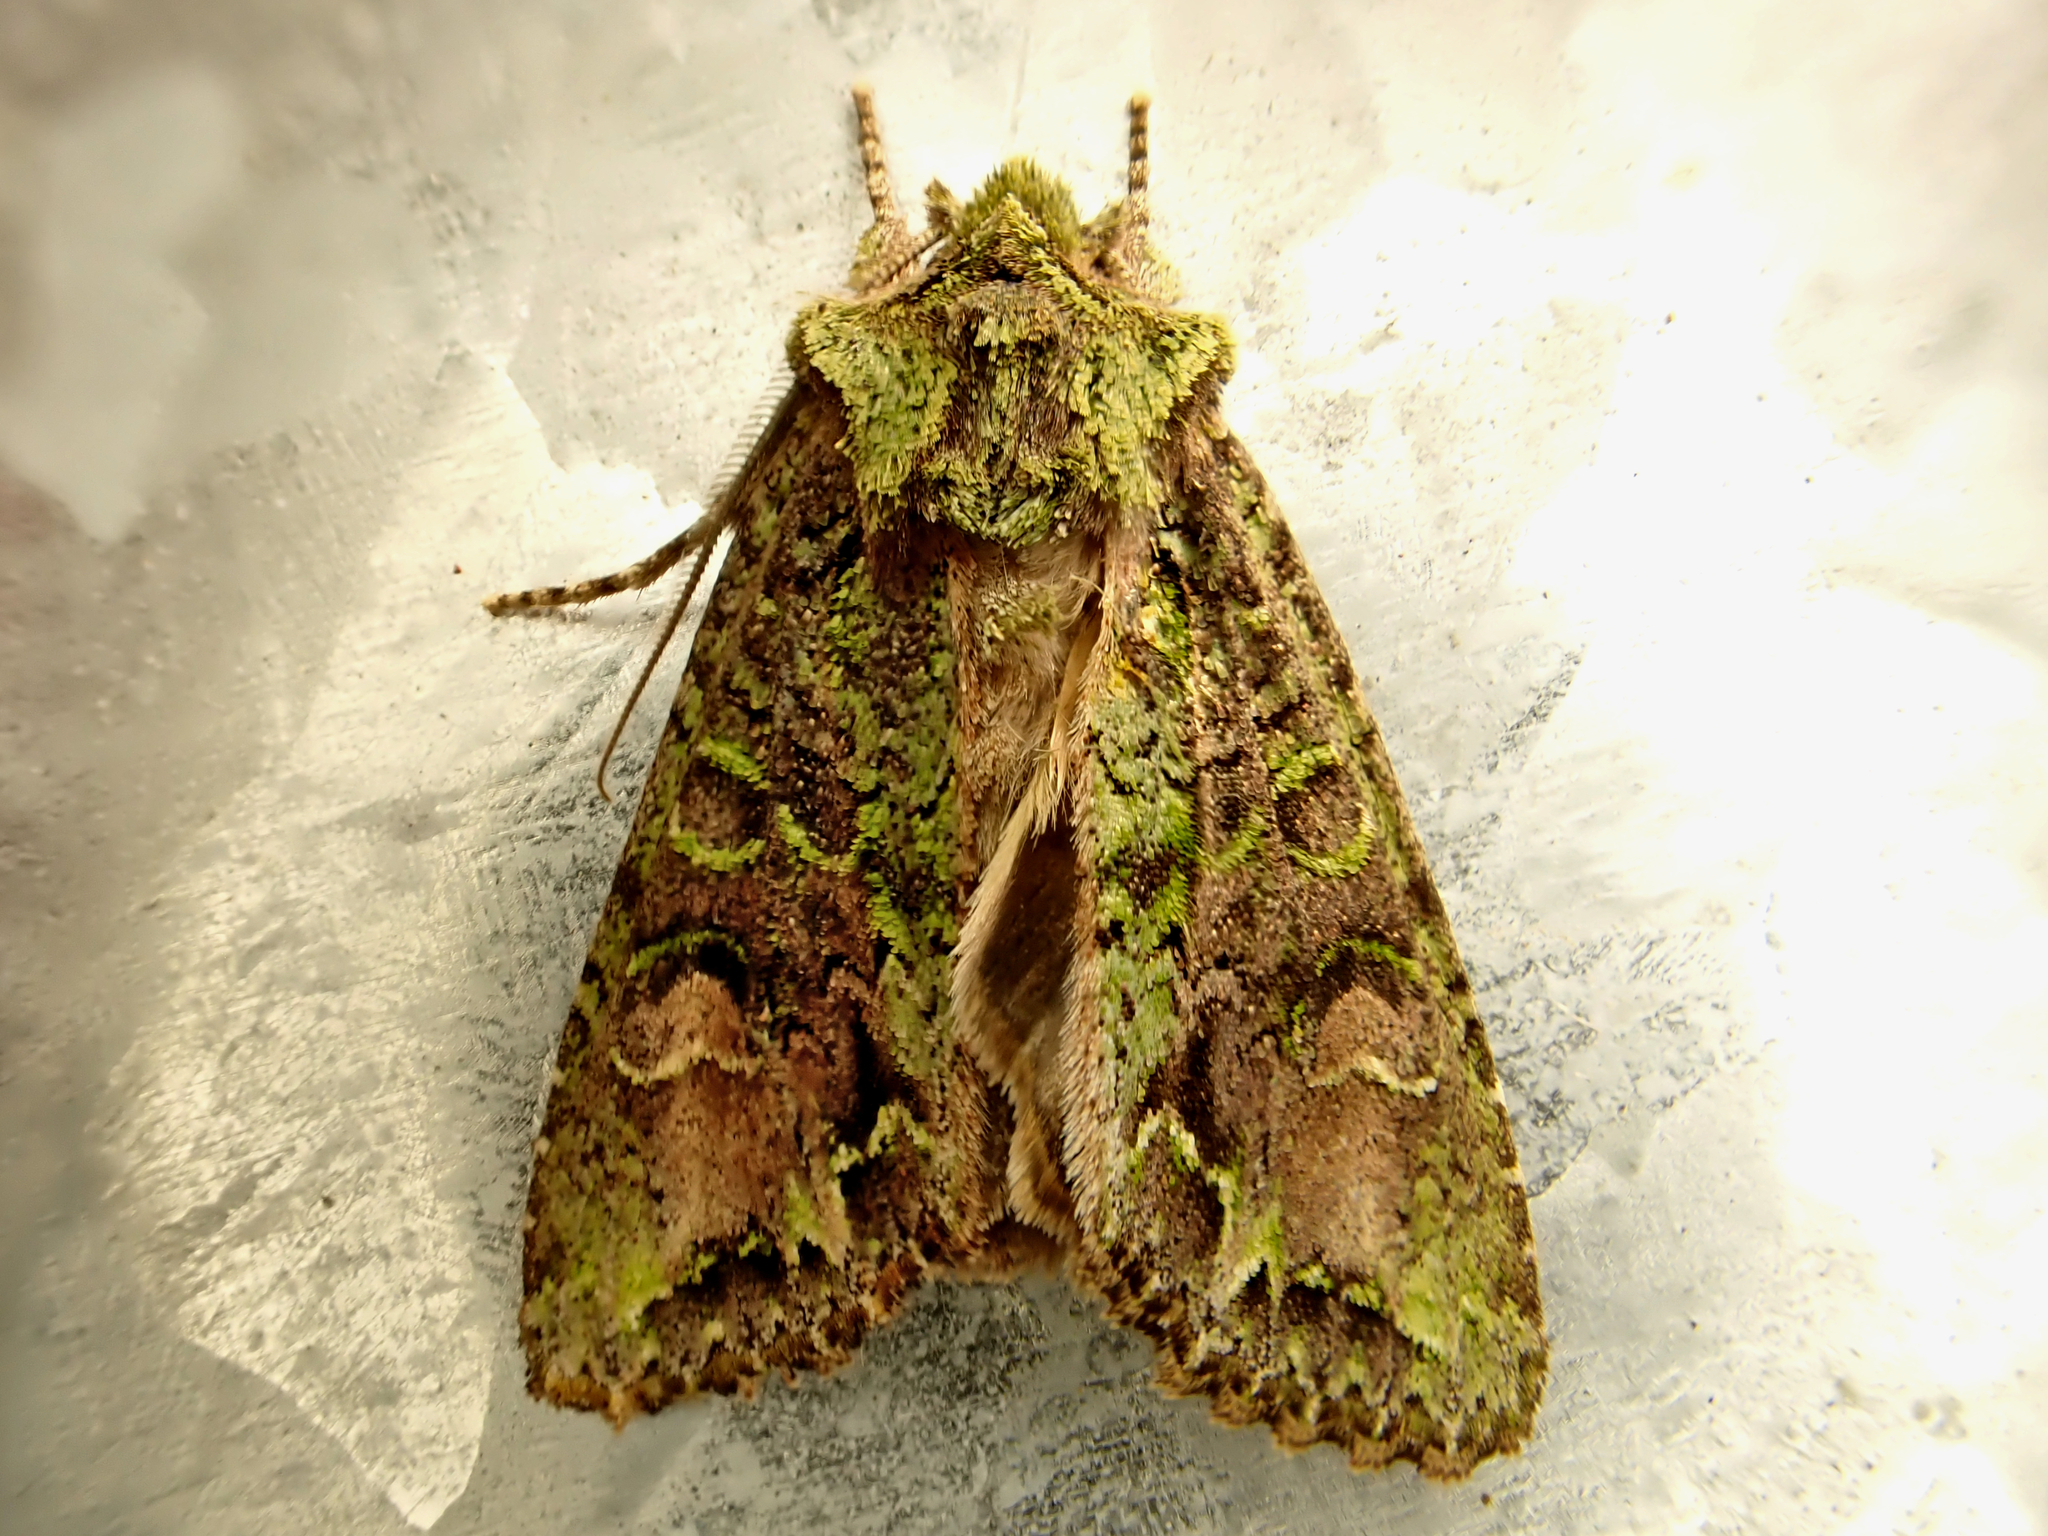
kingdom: Animalia
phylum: Arthropoda
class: Insecta
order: Lepidoptera
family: Noctuidae
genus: Ichneutica
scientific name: Ichneutica insignis
